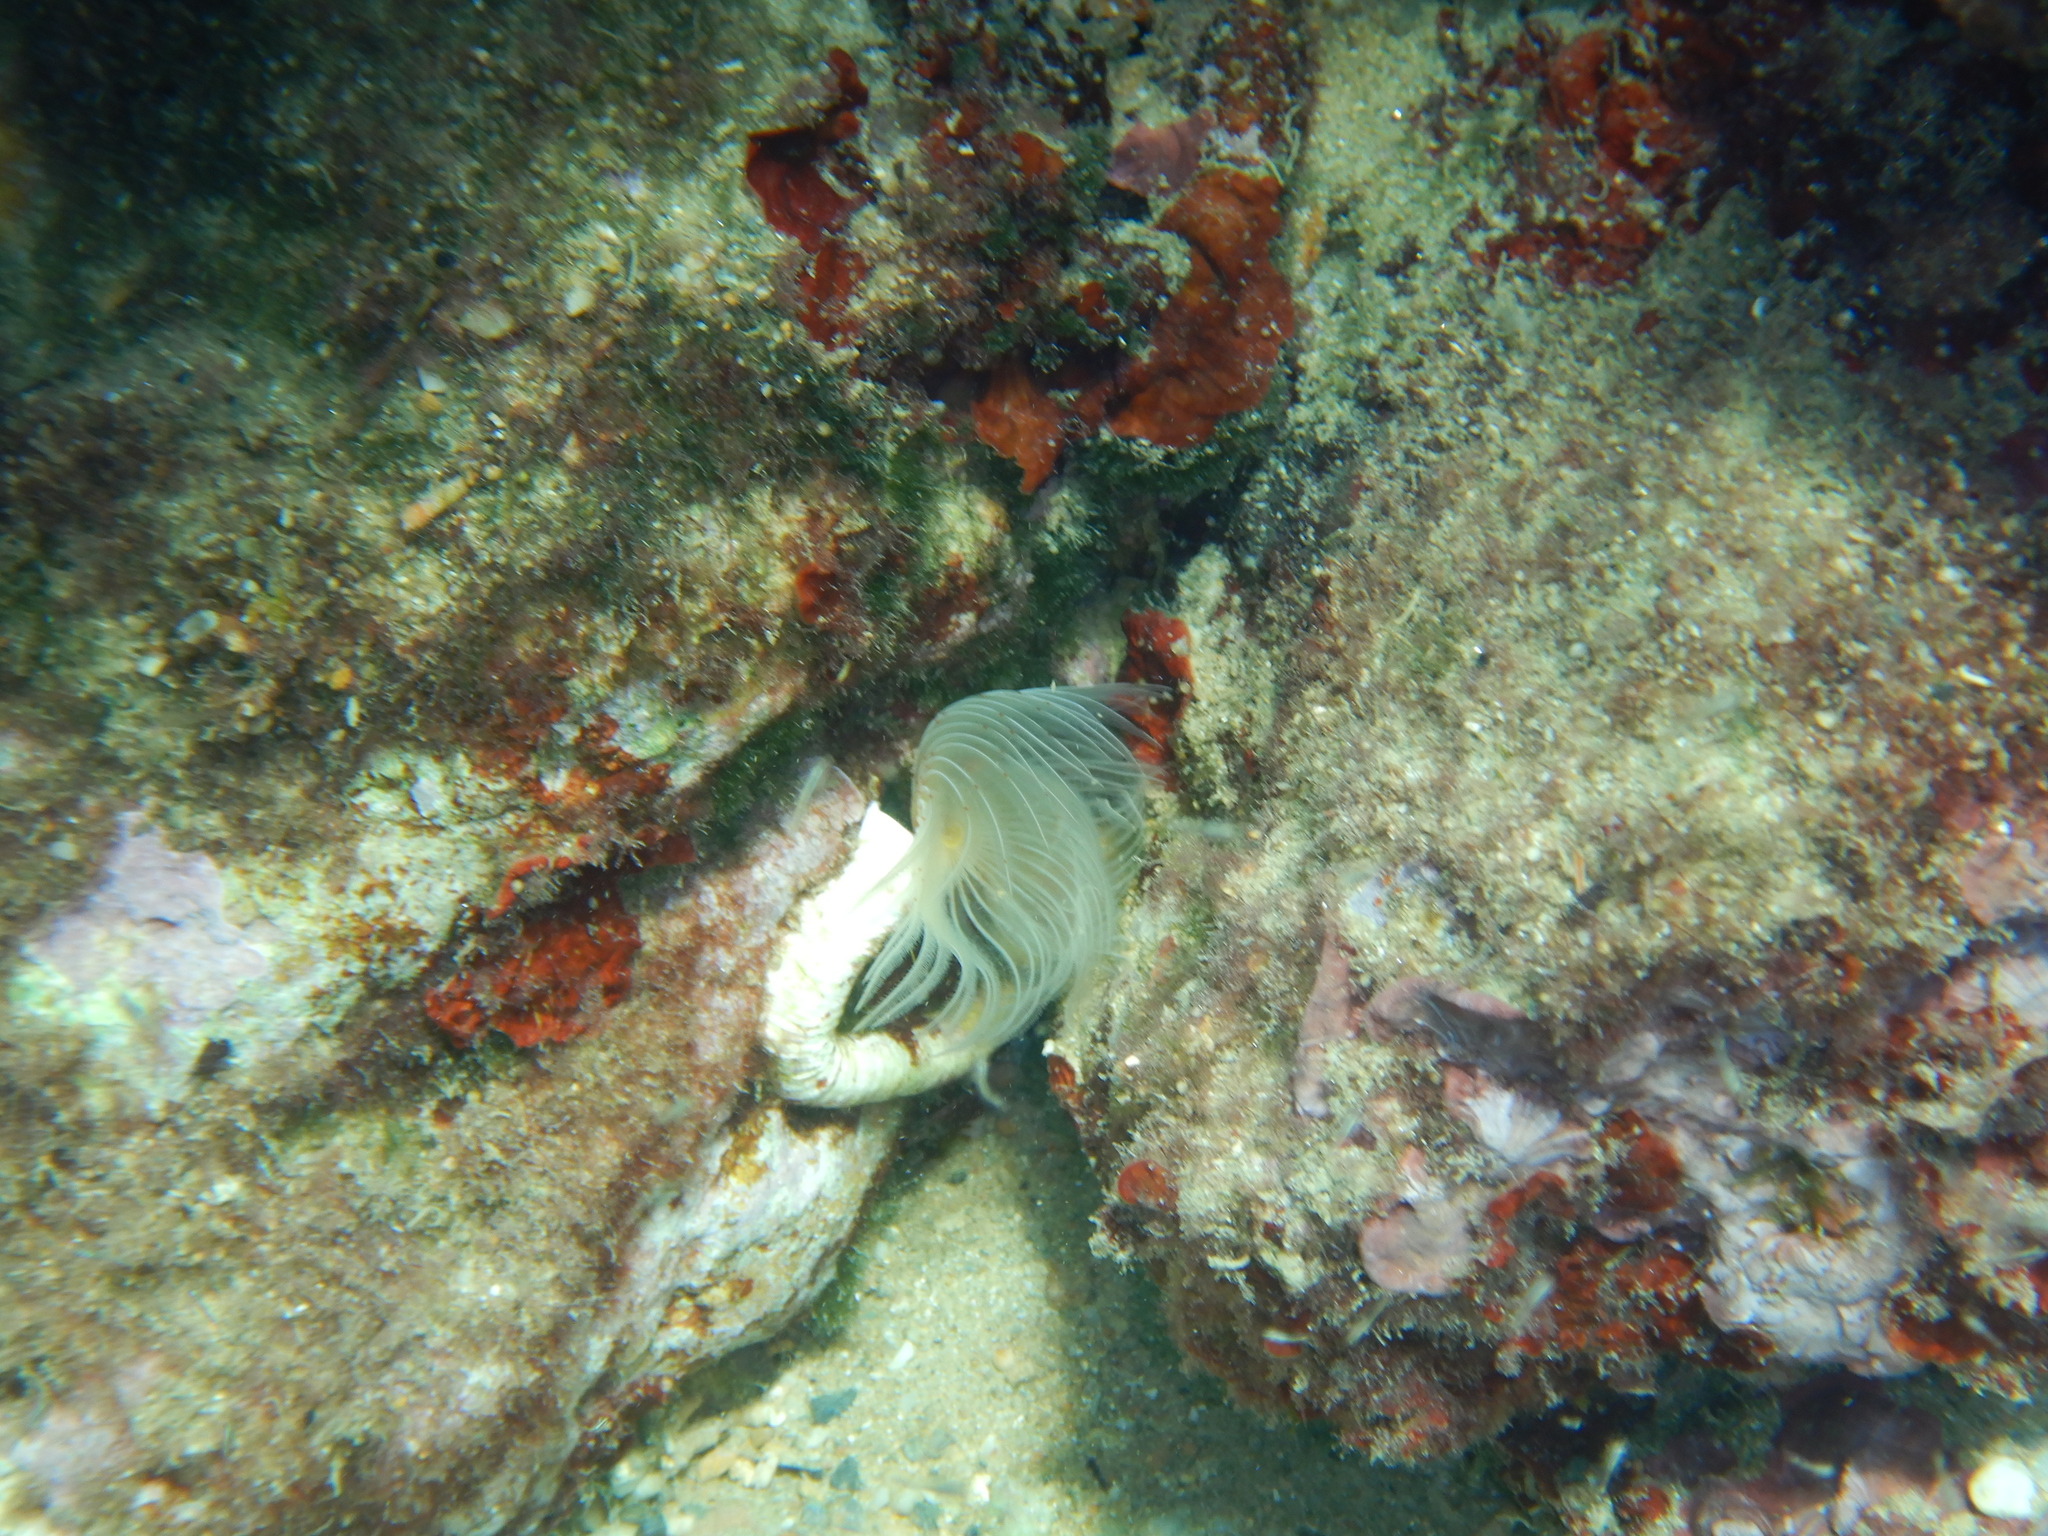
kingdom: Animalia
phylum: Annelida
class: Polychaeta
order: Sabellida
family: Serpulidae
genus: Protula
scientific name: Protula tubularia
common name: Red-spotted horseshoe
